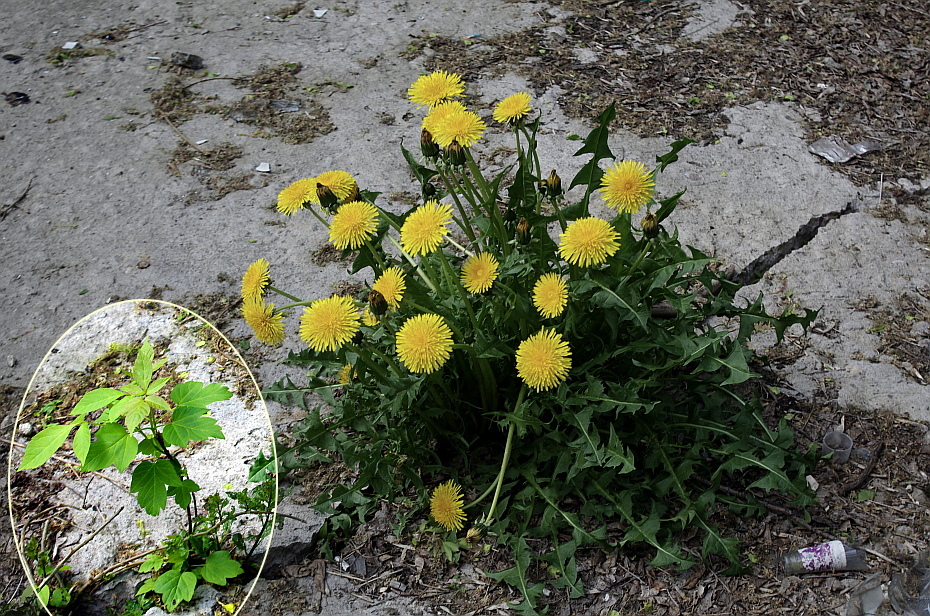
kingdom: Plantae
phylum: Tracheophyta
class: Magnoliopsida
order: Sapindales
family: Sapindaceae
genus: Acer
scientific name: Acer negundo
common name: Ashleaf maple
